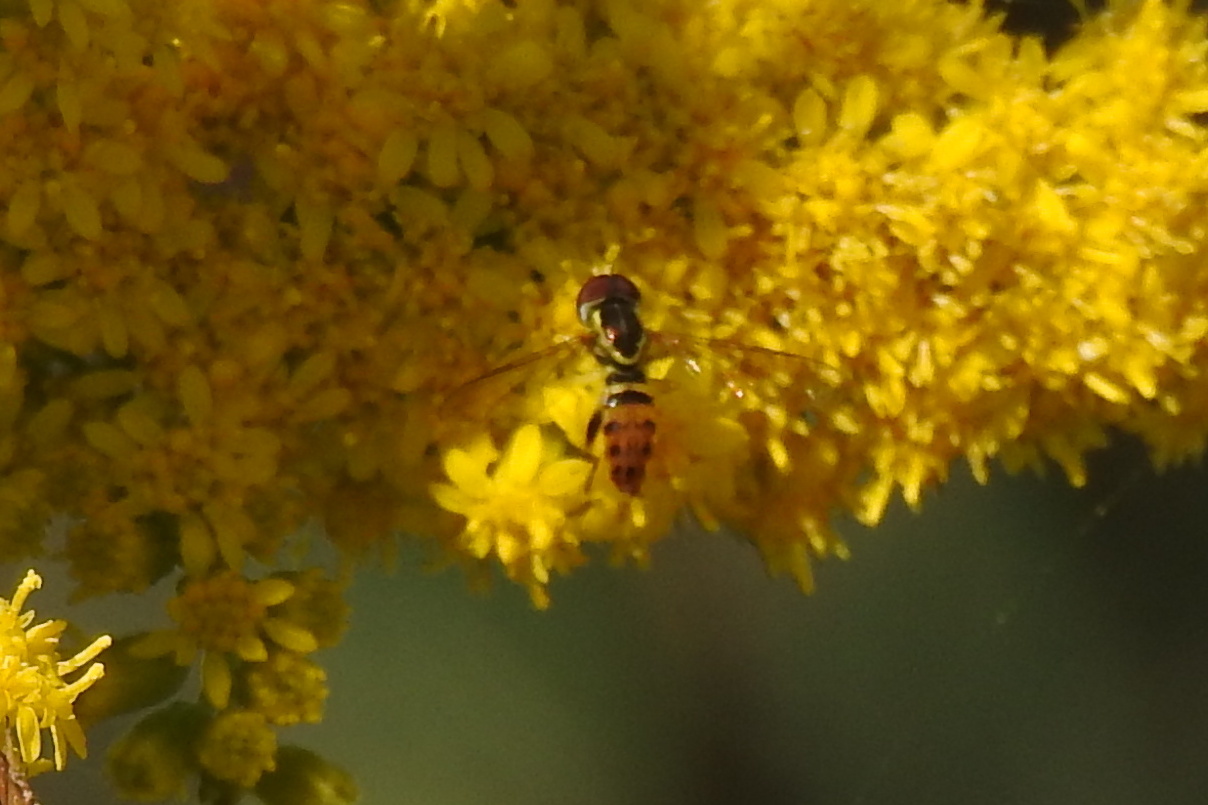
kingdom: Animalia
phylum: Arthropoda
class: Insecta
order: Diptera
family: Syrphidae
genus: Toxomerus
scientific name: Toxomerus geminatus
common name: Eastern calligrapher
